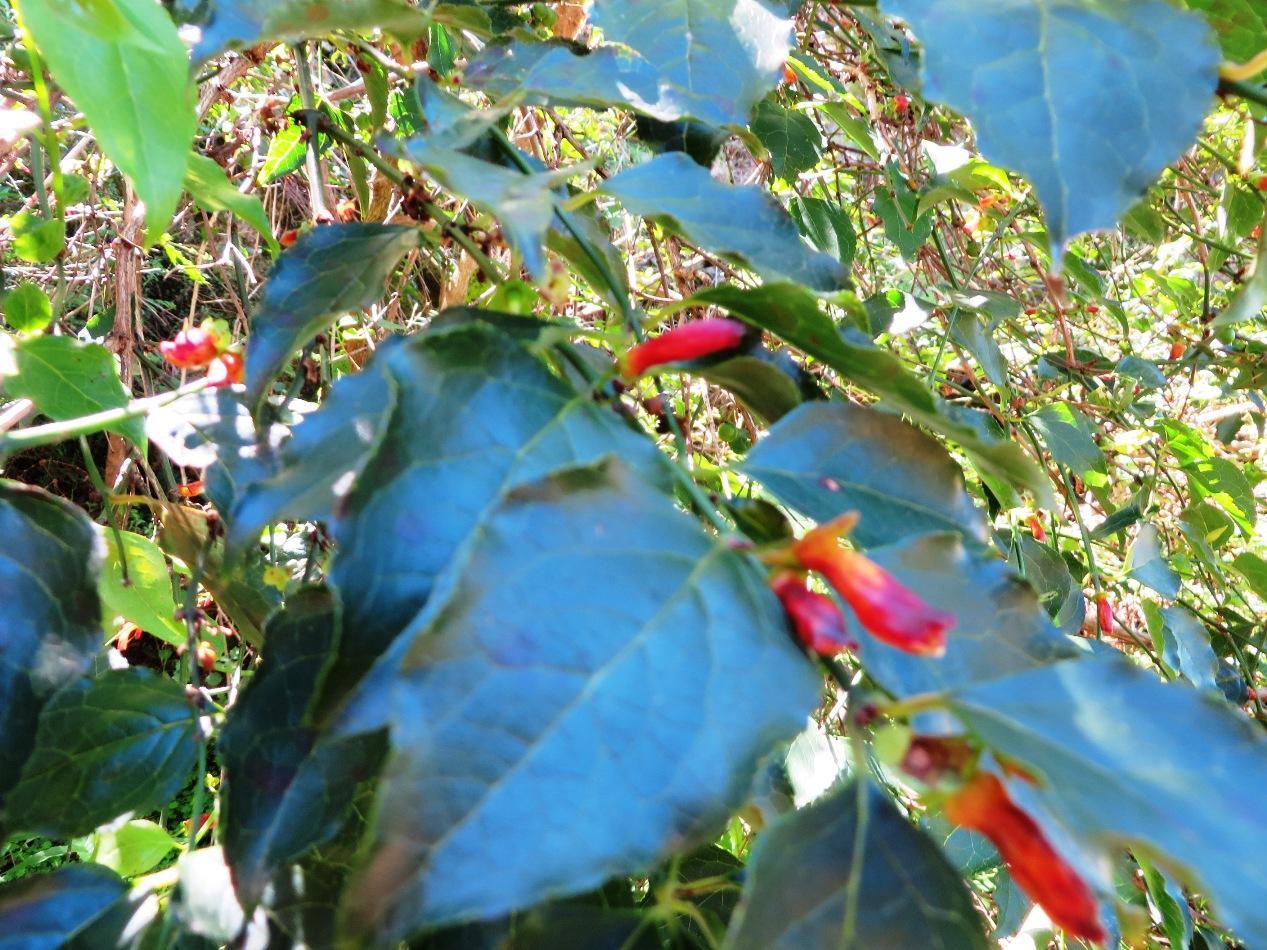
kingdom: Plantae
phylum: Tracheophyta
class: Magnoliopsida
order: Lamiales
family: Stilbaceae
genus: Halleria
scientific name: Halleria lucida
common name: Tree fuschia
